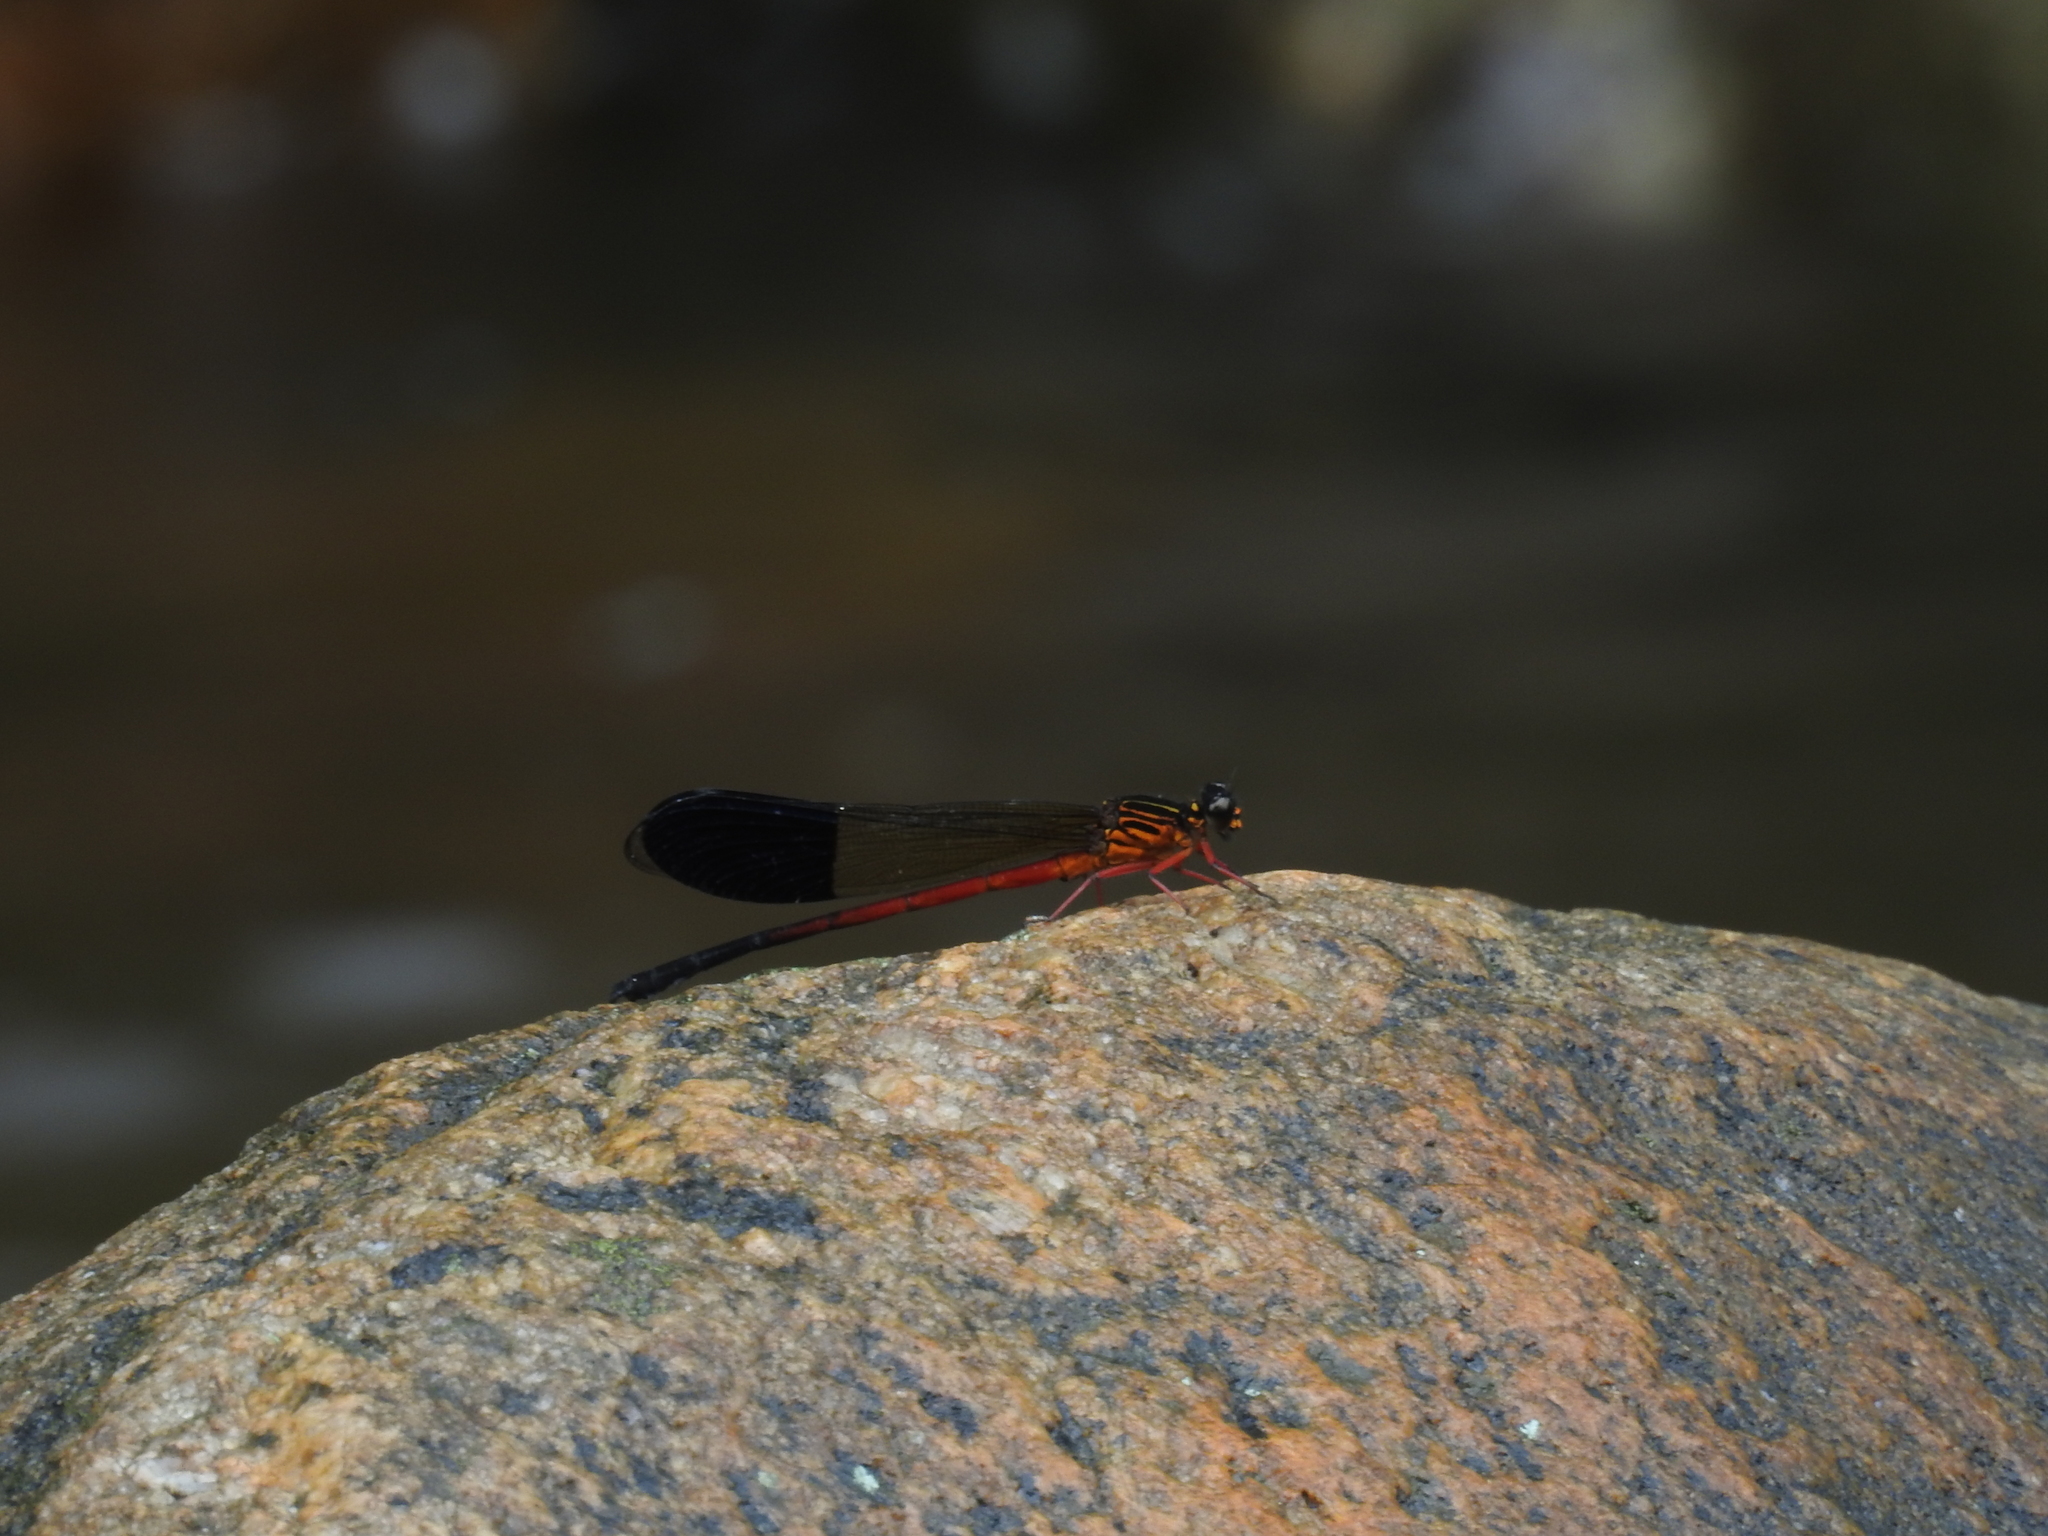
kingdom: Animalia
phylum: Arthropoda
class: Insecta
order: Odonata
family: Euphaeidae
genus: Euphaea
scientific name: Euphaea cardinalis
